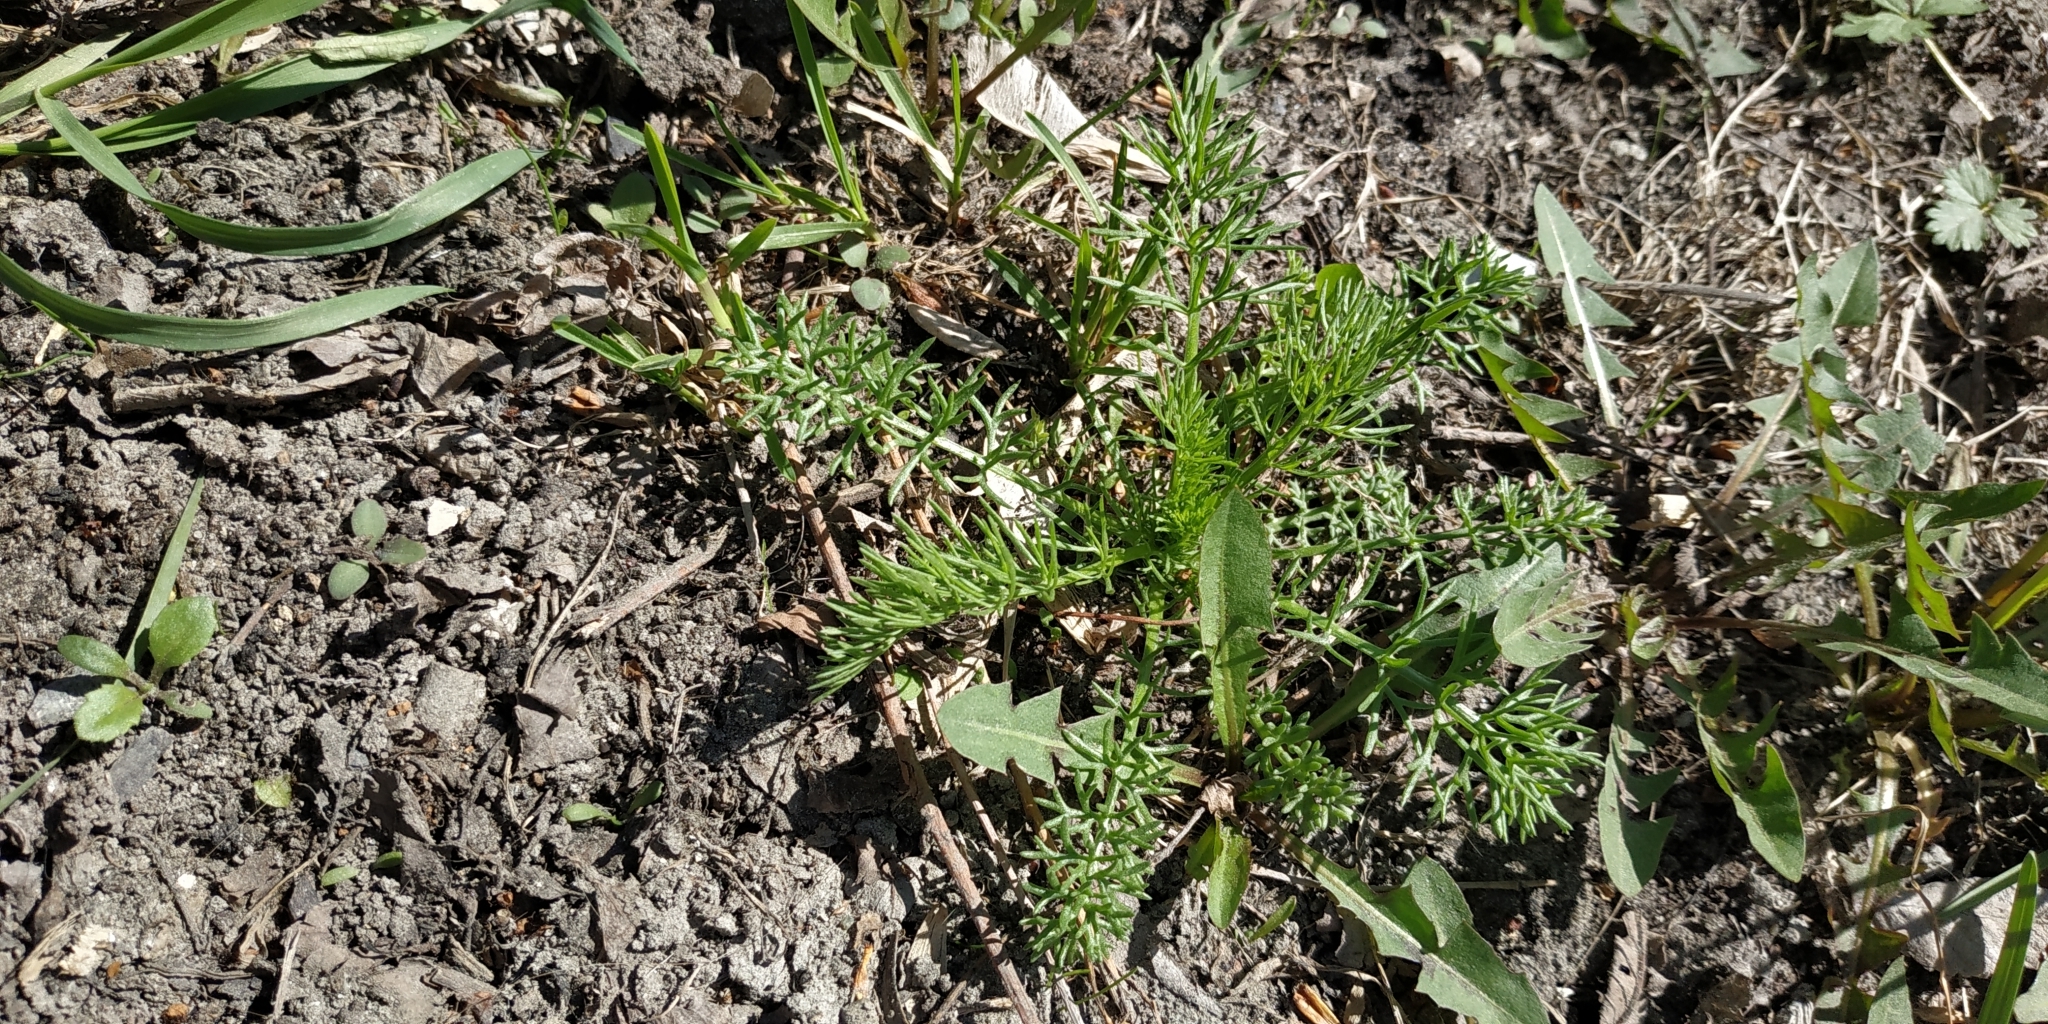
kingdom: Plantae
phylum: Tracheophyta
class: Magnoliopsida
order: Asterales
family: Asteraceae
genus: Tripleurospermum
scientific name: Tripleurospermum inodorum
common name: Scentless mayweed
